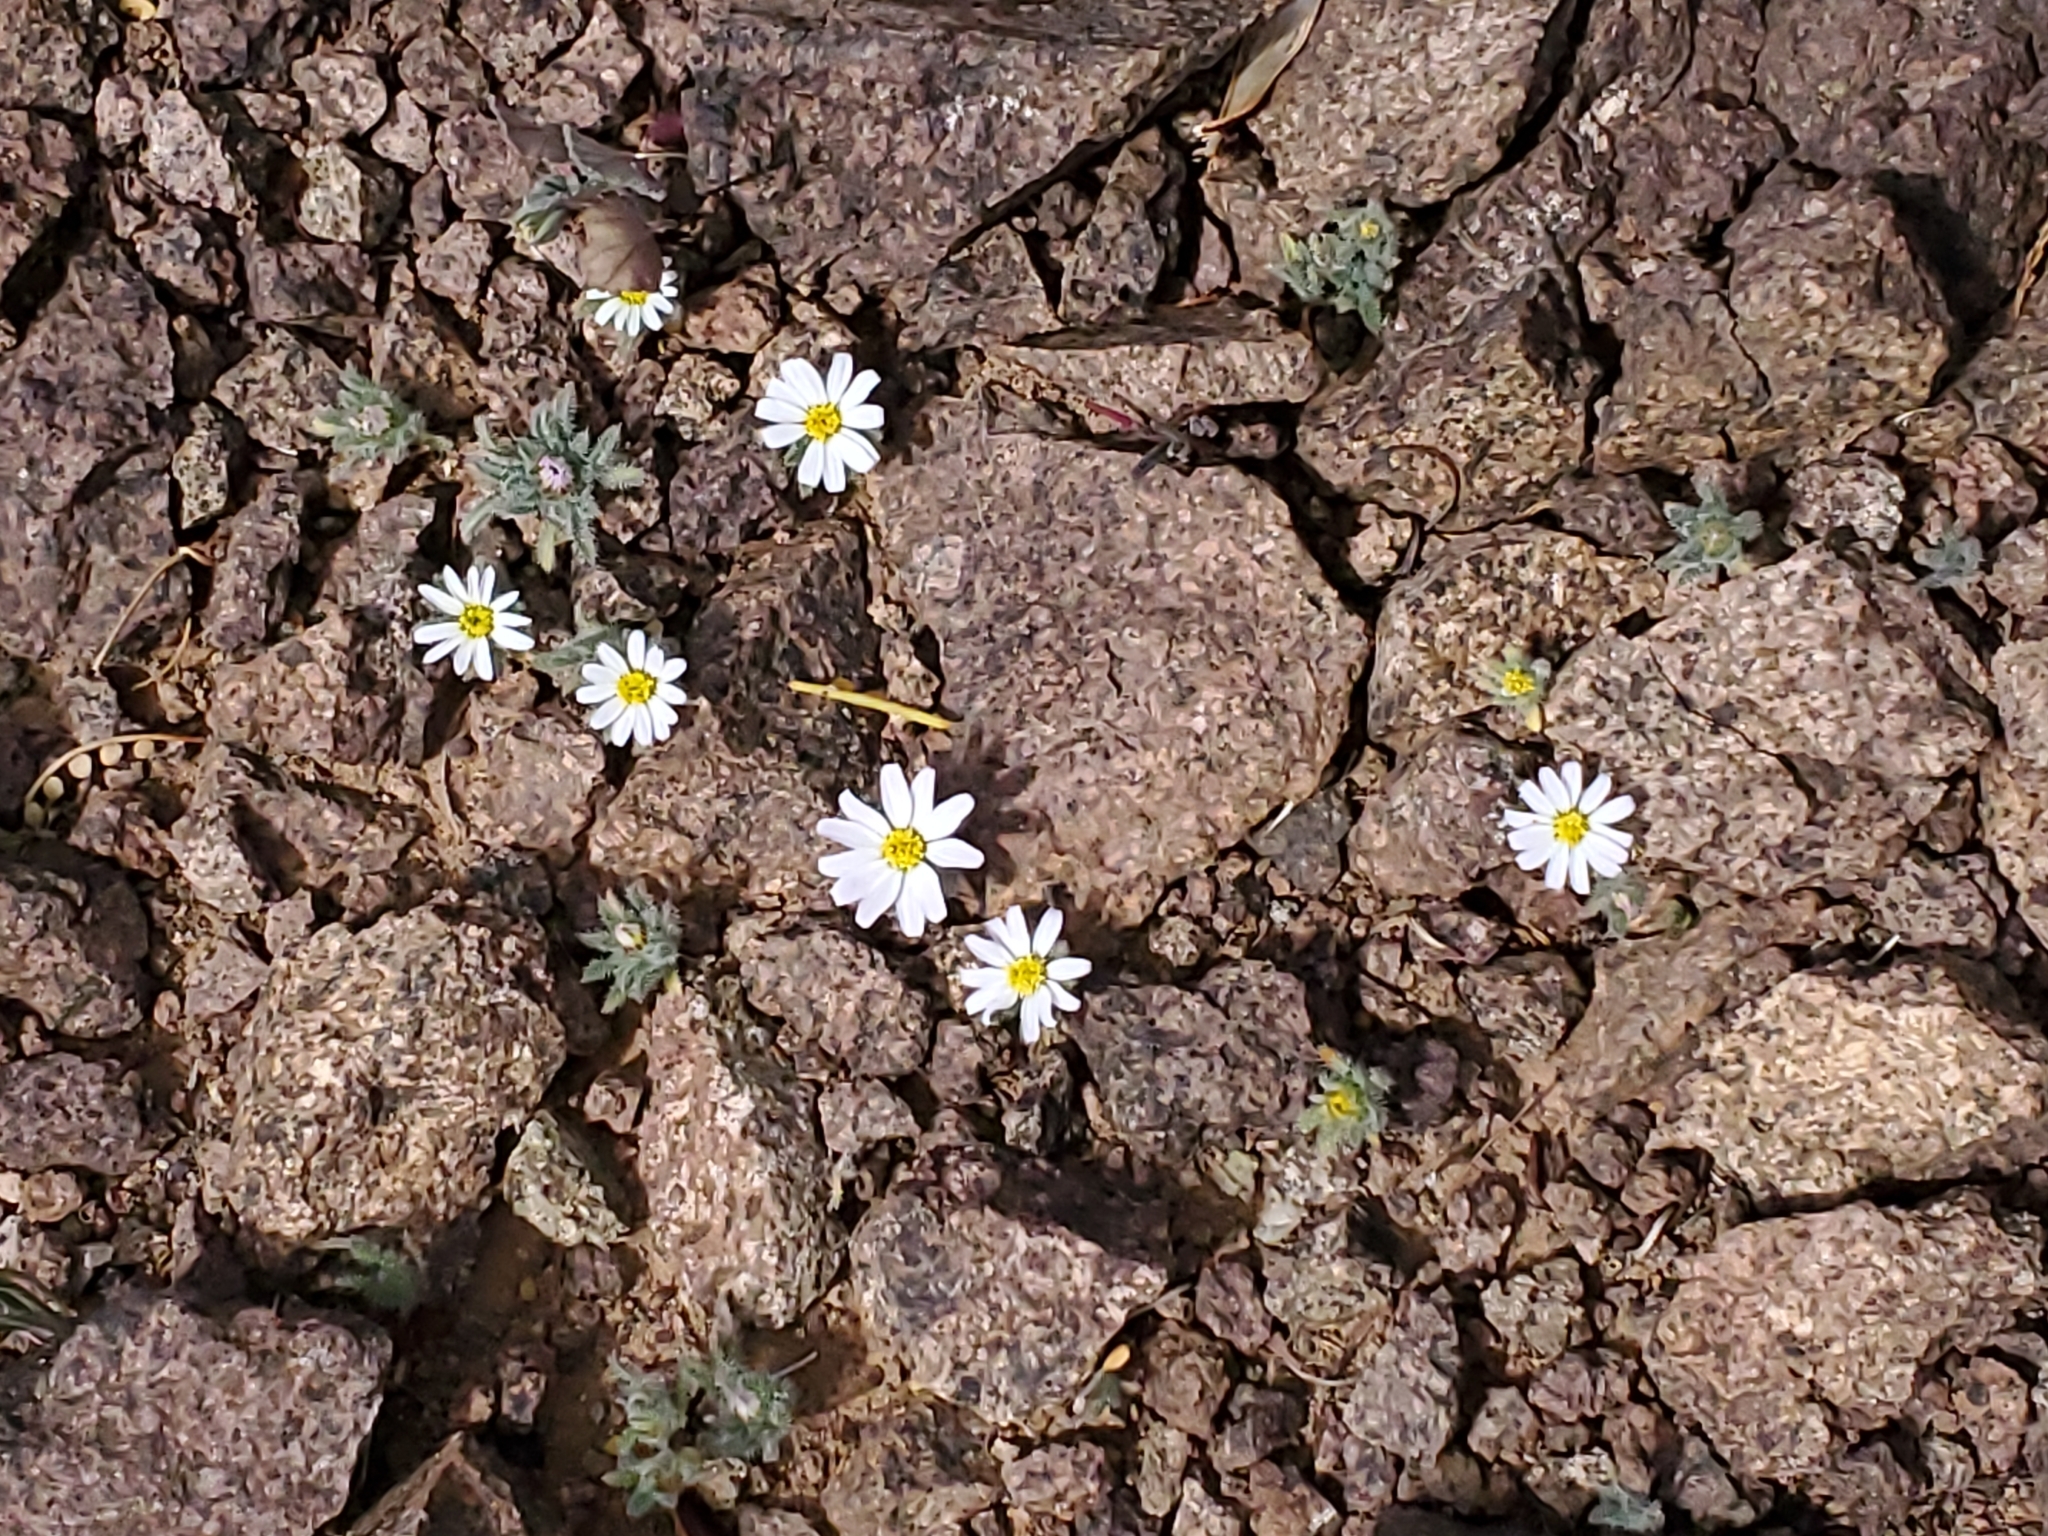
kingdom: Plantae
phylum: Tracheophyta
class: Magnoliopsida
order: Asterales
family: Asteraceae
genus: Monoptilon
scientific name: Monoptilon bellioides
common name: Bristly desertstar
